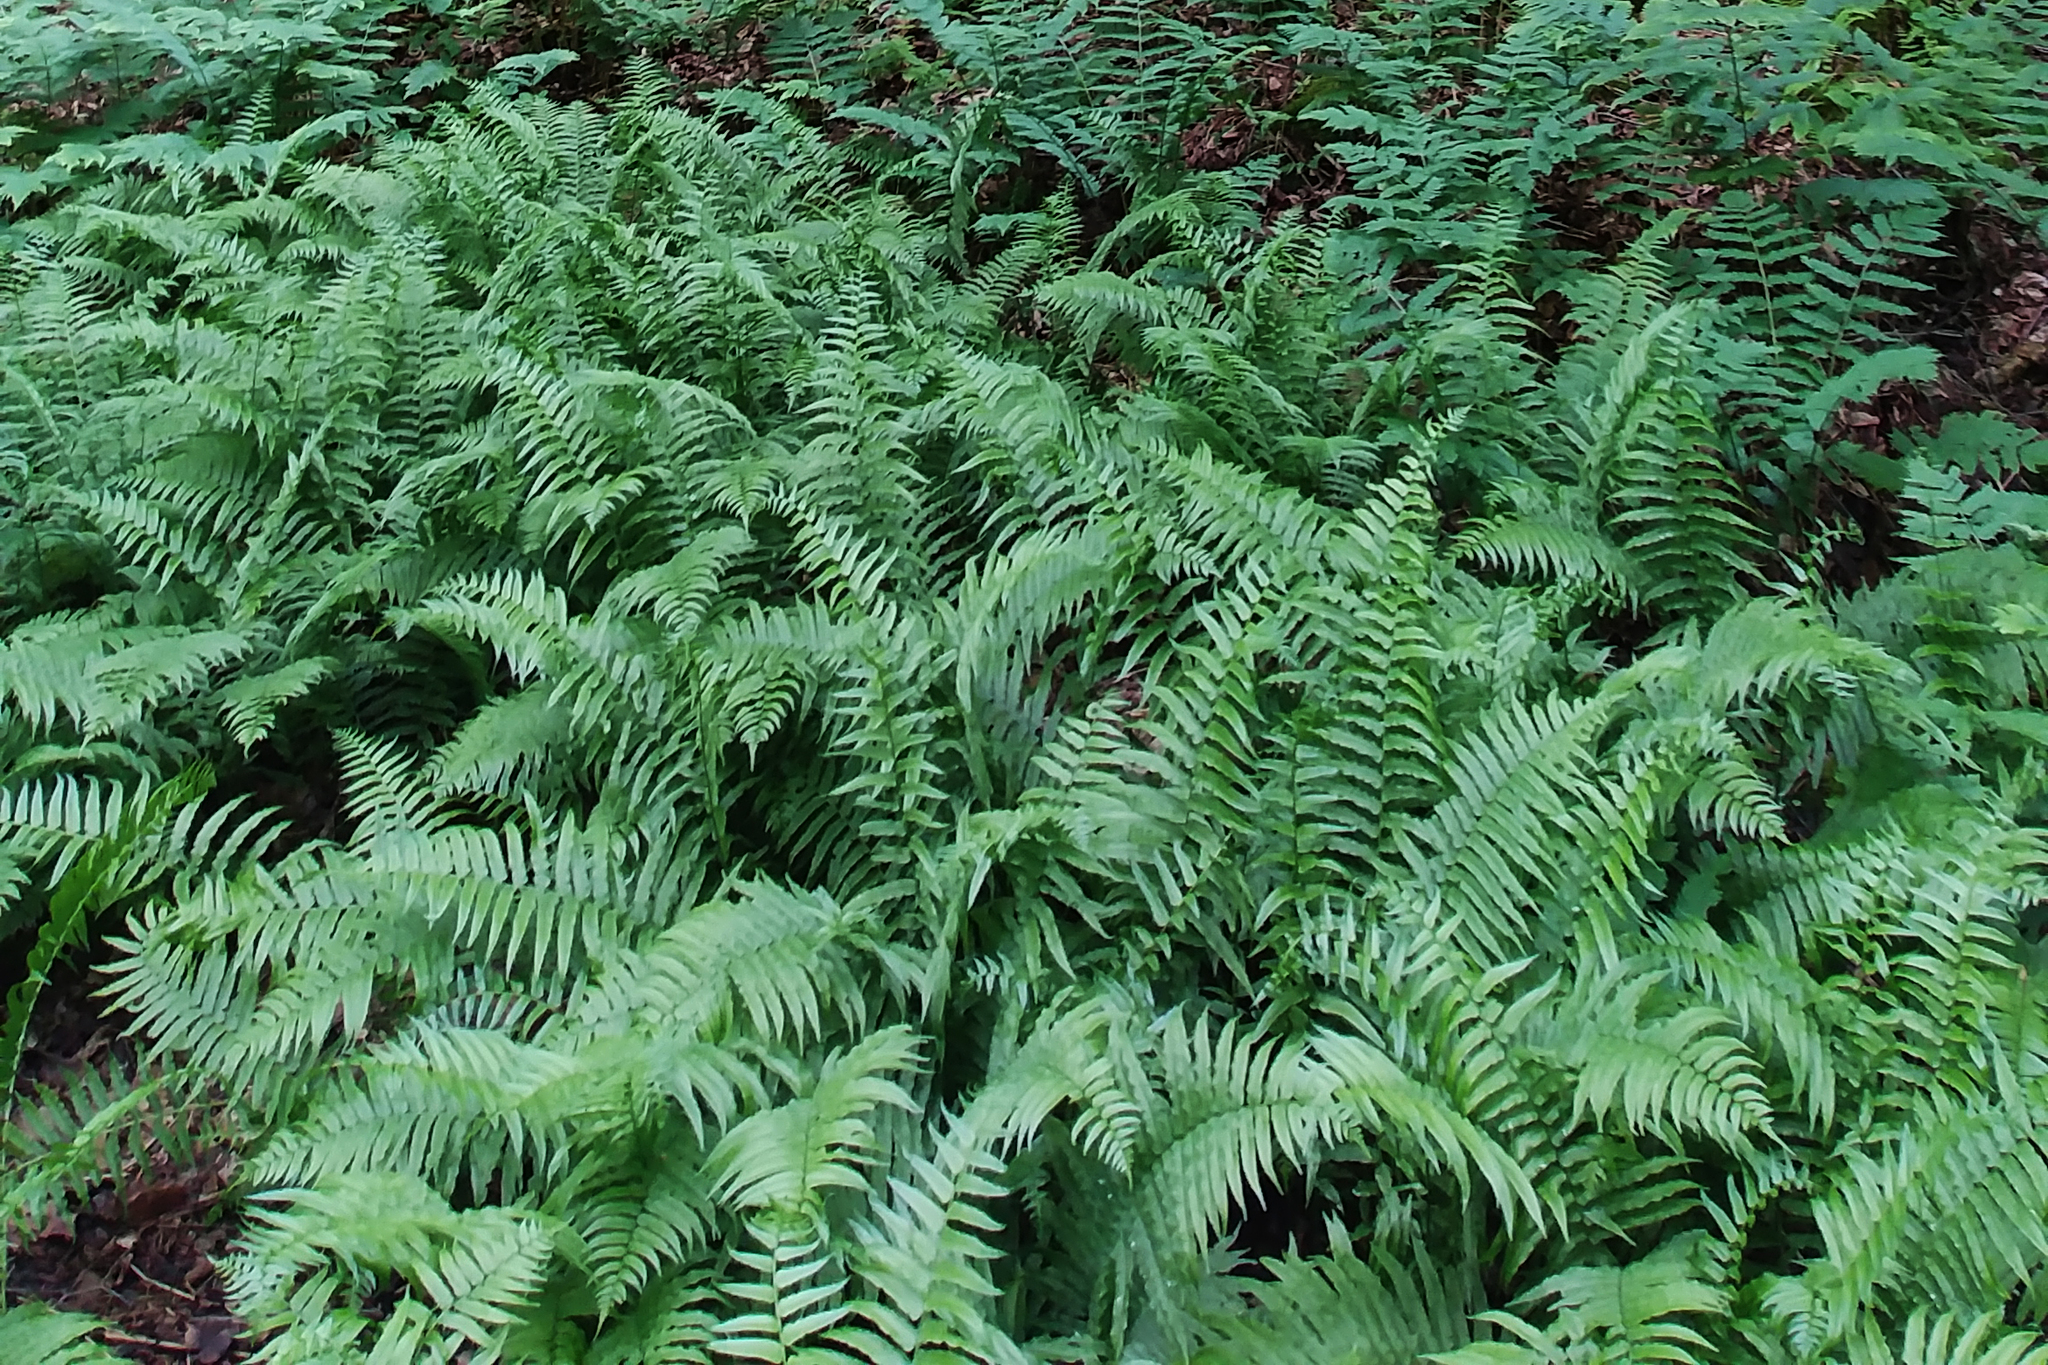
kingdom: Plantae
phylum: Tracheophyta
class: Polypodiopsida
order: Polypodiales
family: Diplaziopsidaceae
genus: Homalosorus
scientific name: Homalosorus pycnocarpos
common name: Glade fern
